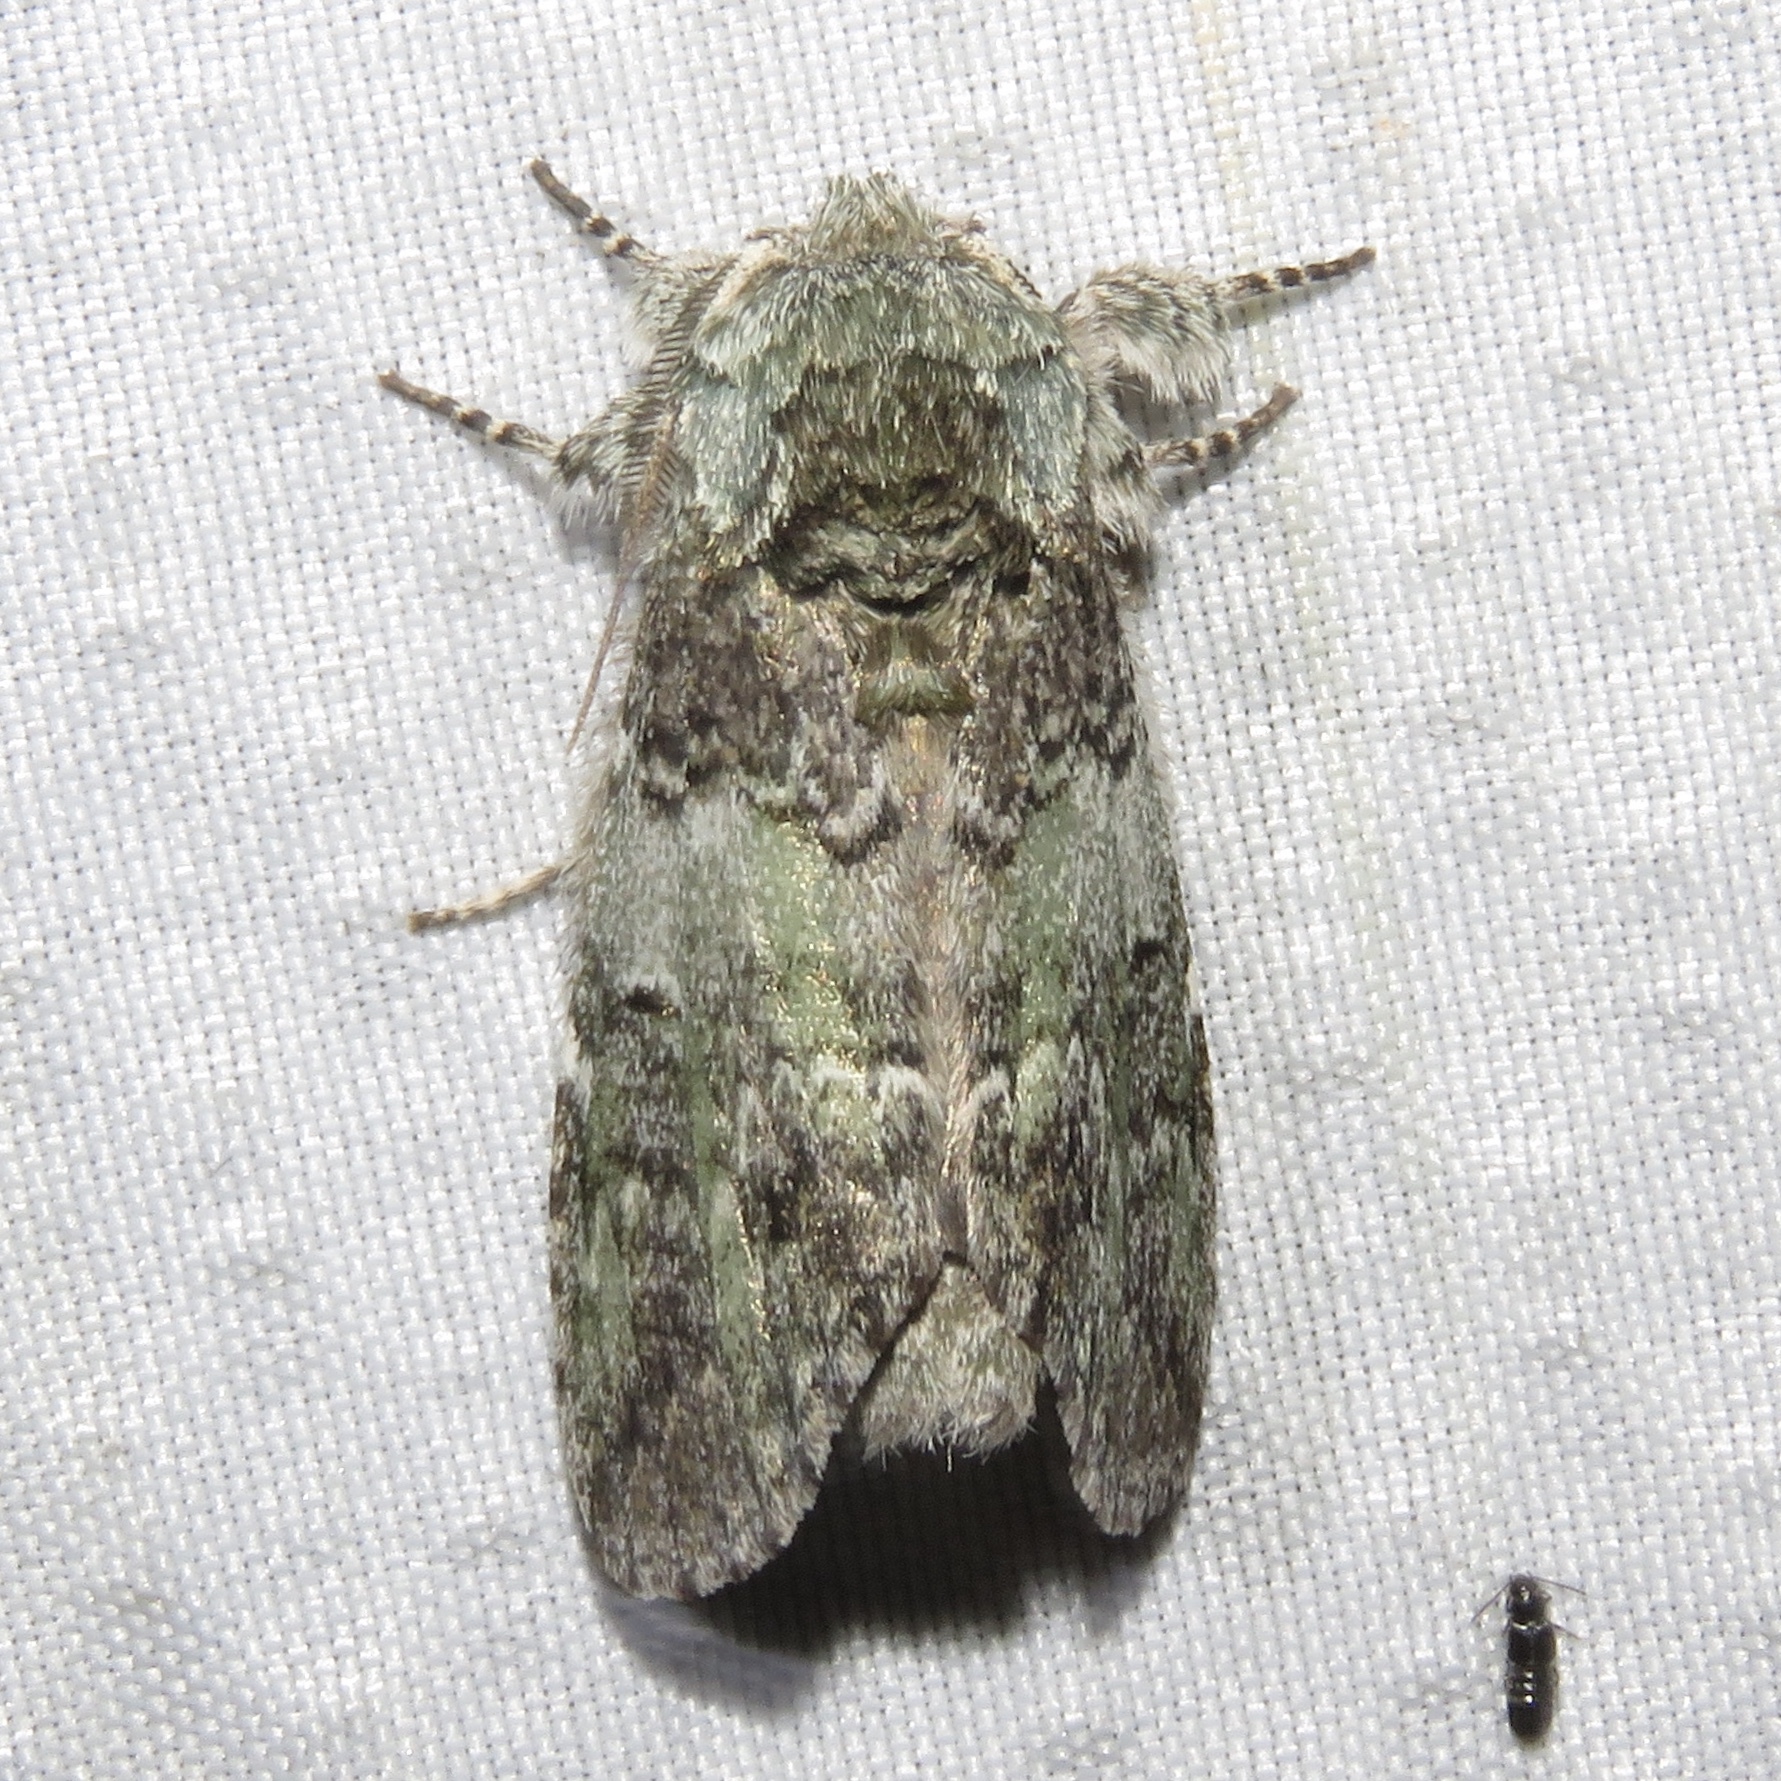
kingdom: Animalia
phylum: Arthropoda
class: Insecta
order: Lepidoptera
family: Notodontidae
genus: Macrurocampa
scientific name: Macrurocampa marthesia
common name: Mottled prominent
